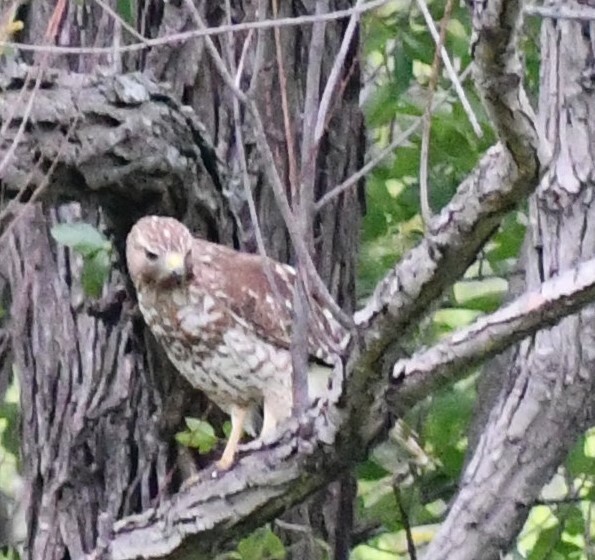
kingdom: Animalia
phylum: Chordata
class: Aves
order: Accipitriformes
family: Accipitridae
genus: Buteo
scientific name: Buteo lineatus
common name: Red-shouldered hawk
